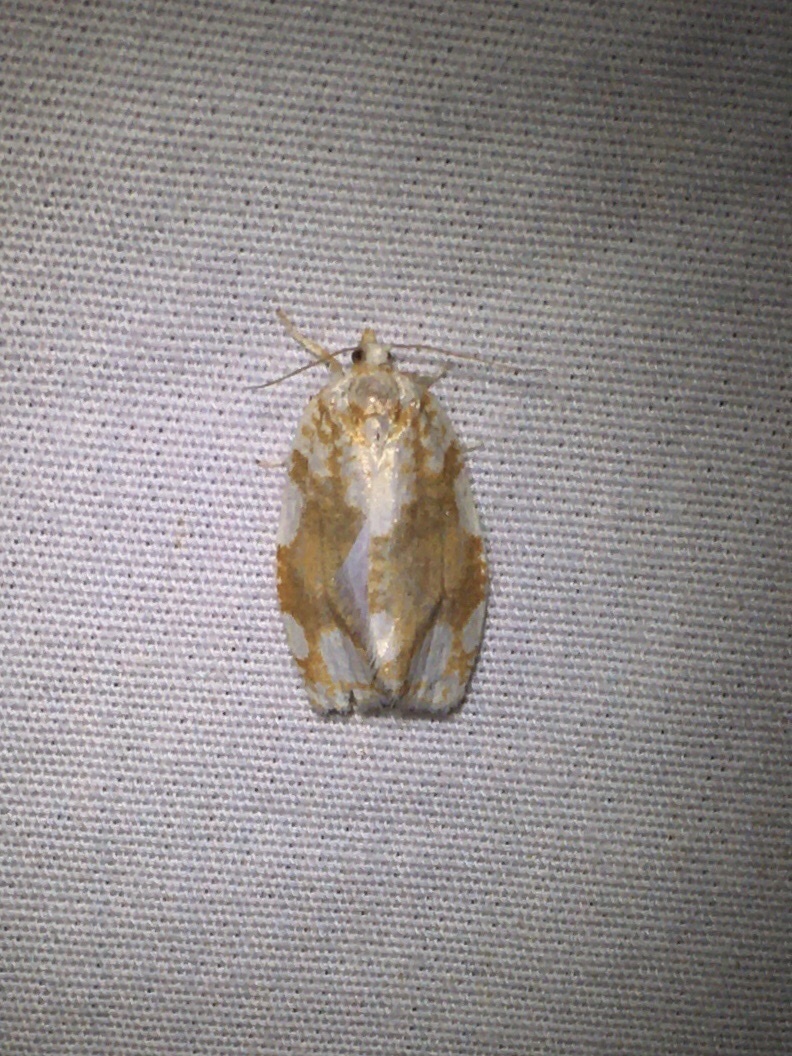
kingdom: Animalia
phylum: Arthropoda
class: Insecta
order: Lepidoptera
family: Tortricidae
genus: Argyrotaenia
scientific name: Argyrotaenia alisellana
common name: White-spotted leafroller moth
